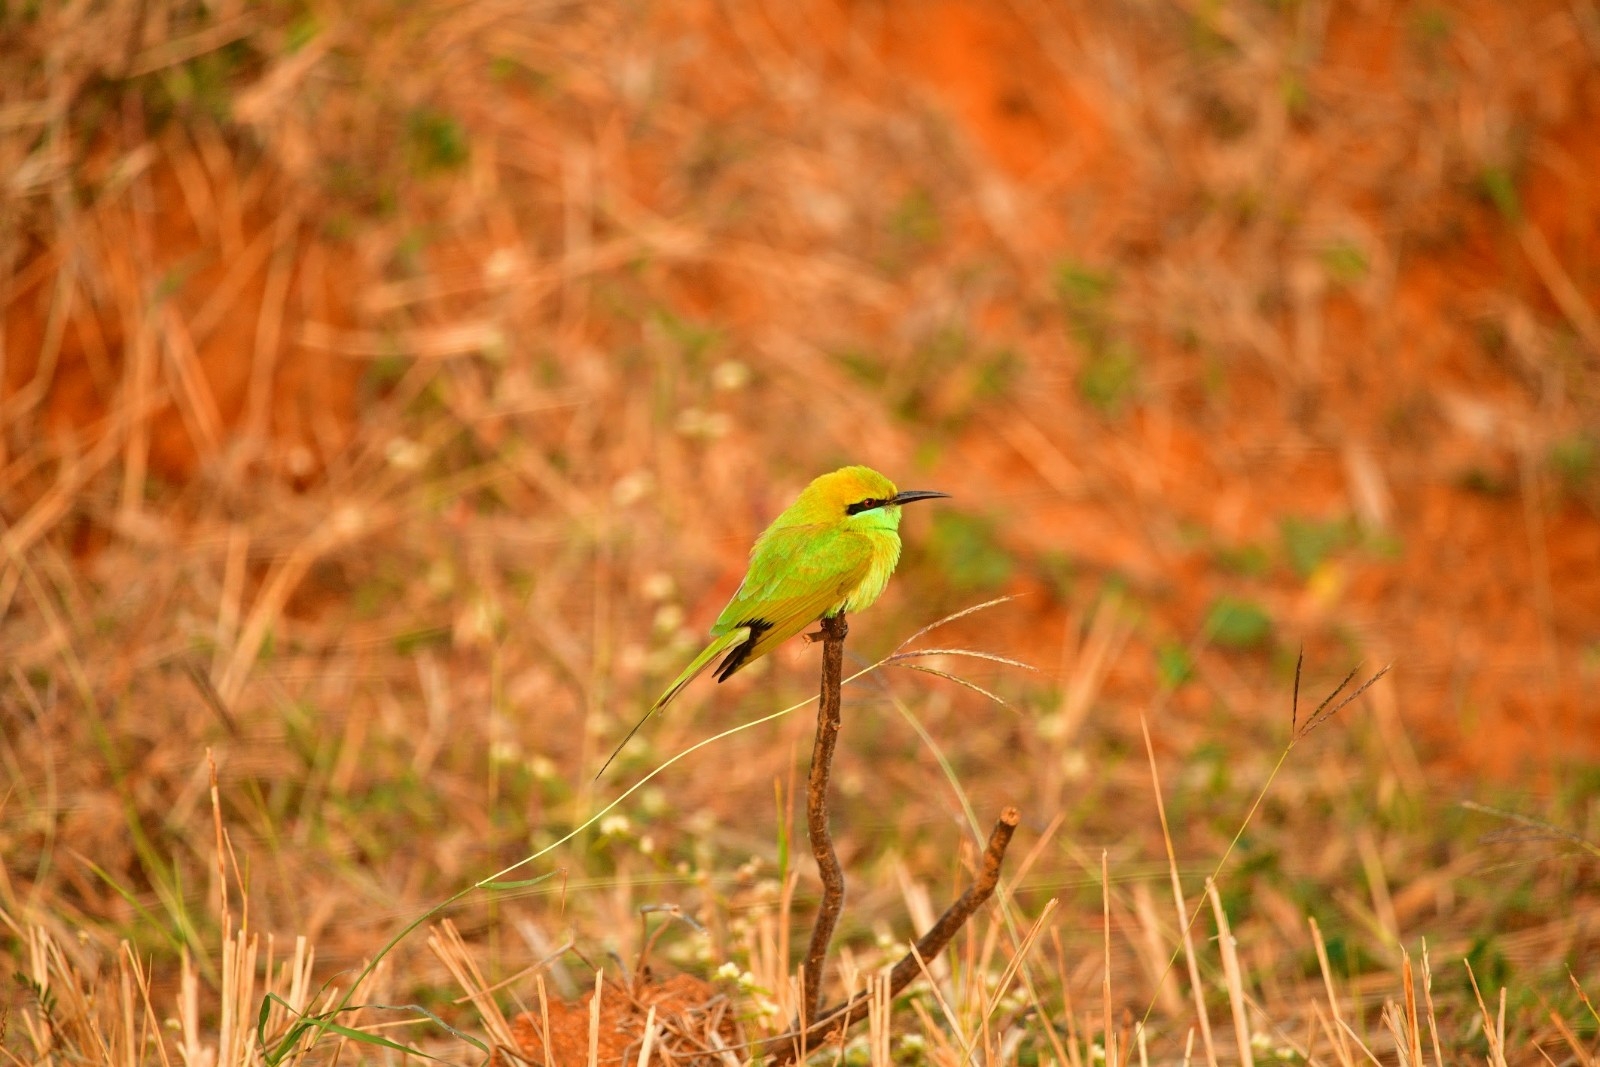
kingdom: Animalia
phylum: Chordata
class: Aves
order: Coraciiformes
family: Meropidae
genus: Merops
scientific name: Merops orientalis
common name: Green bee-eater
